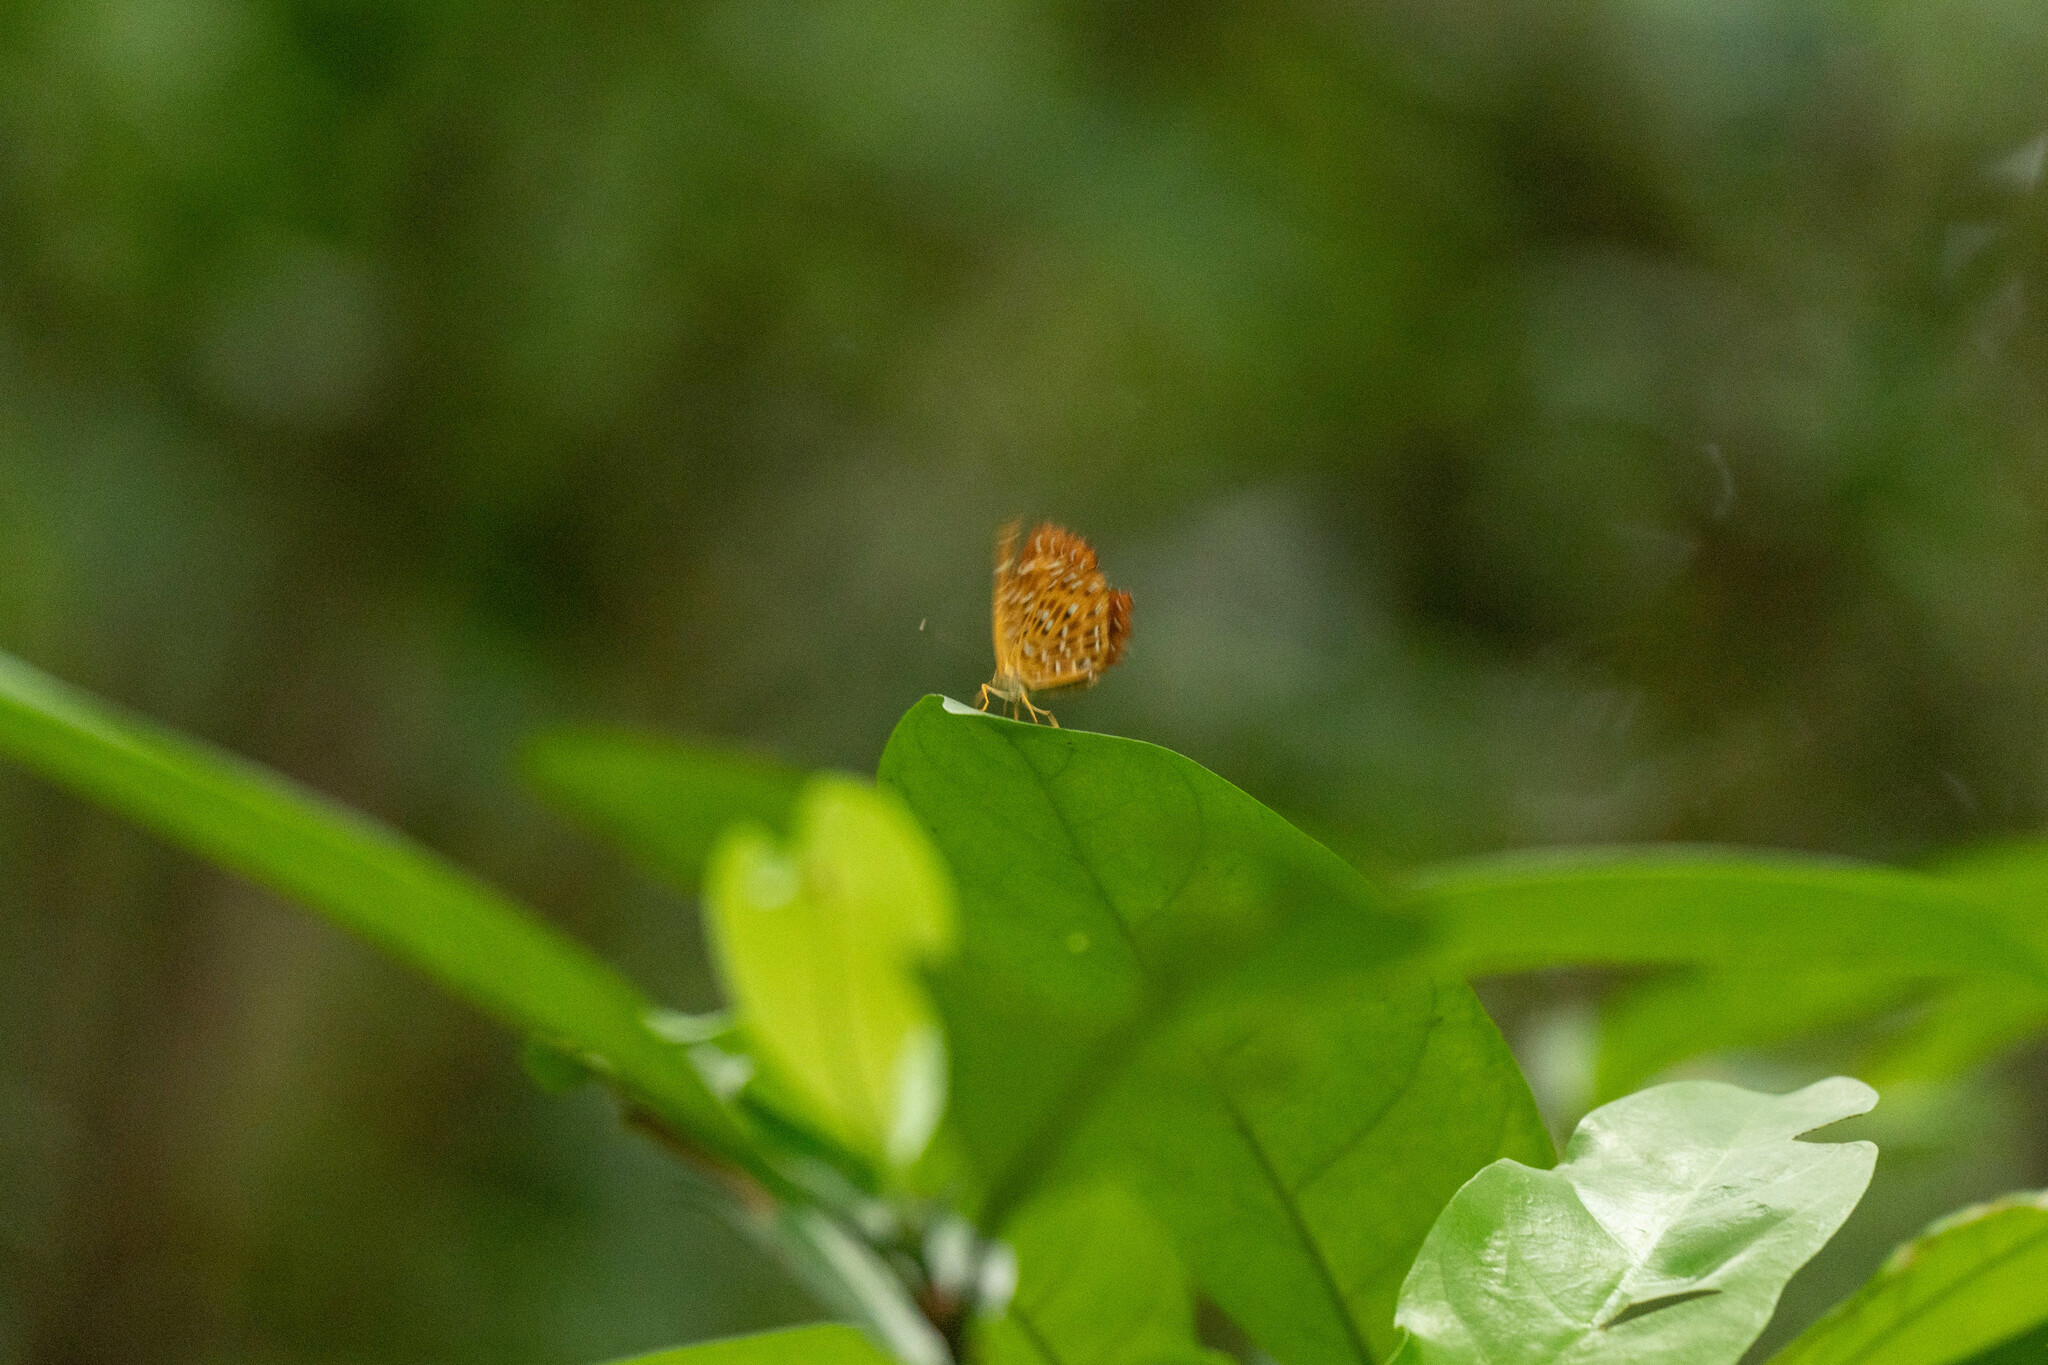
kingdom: Animalia
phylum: Arthropoda
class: Insecta
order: Lepidoptera
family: Riodinidae
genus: Zemeros
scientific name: Zemeros flegyas
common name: Punchinello
